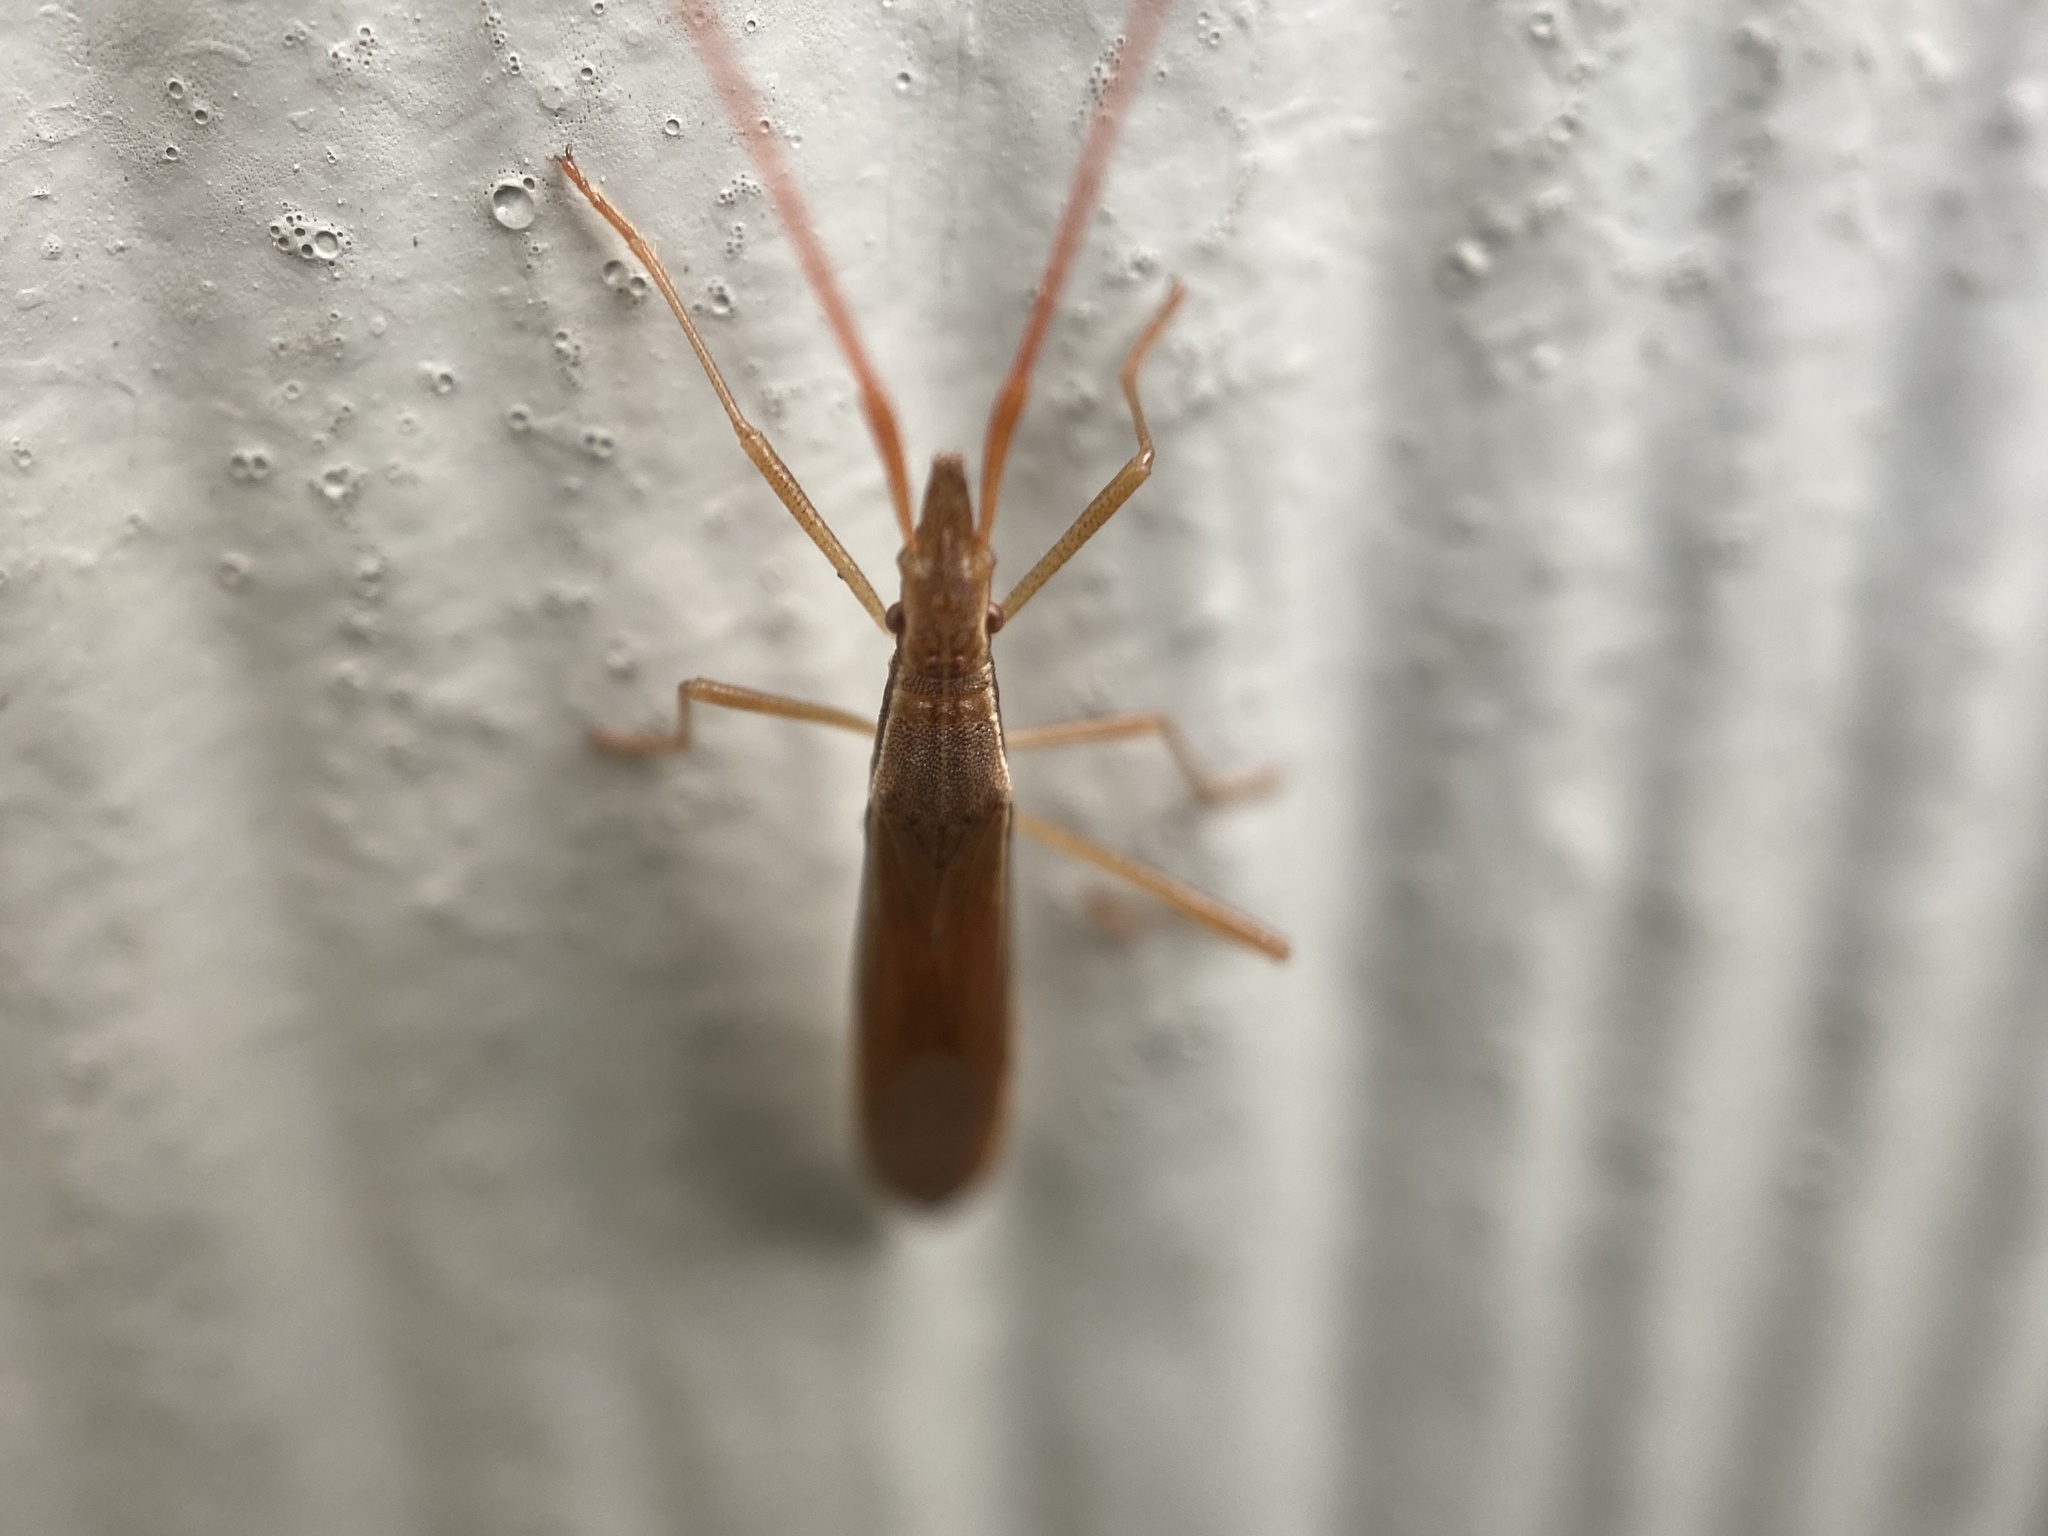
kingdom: Animalia
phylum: Arthropoda
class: Insecta
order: Hemiptera
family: Alydidae
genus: Protenor
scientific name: Protenor belfragei
